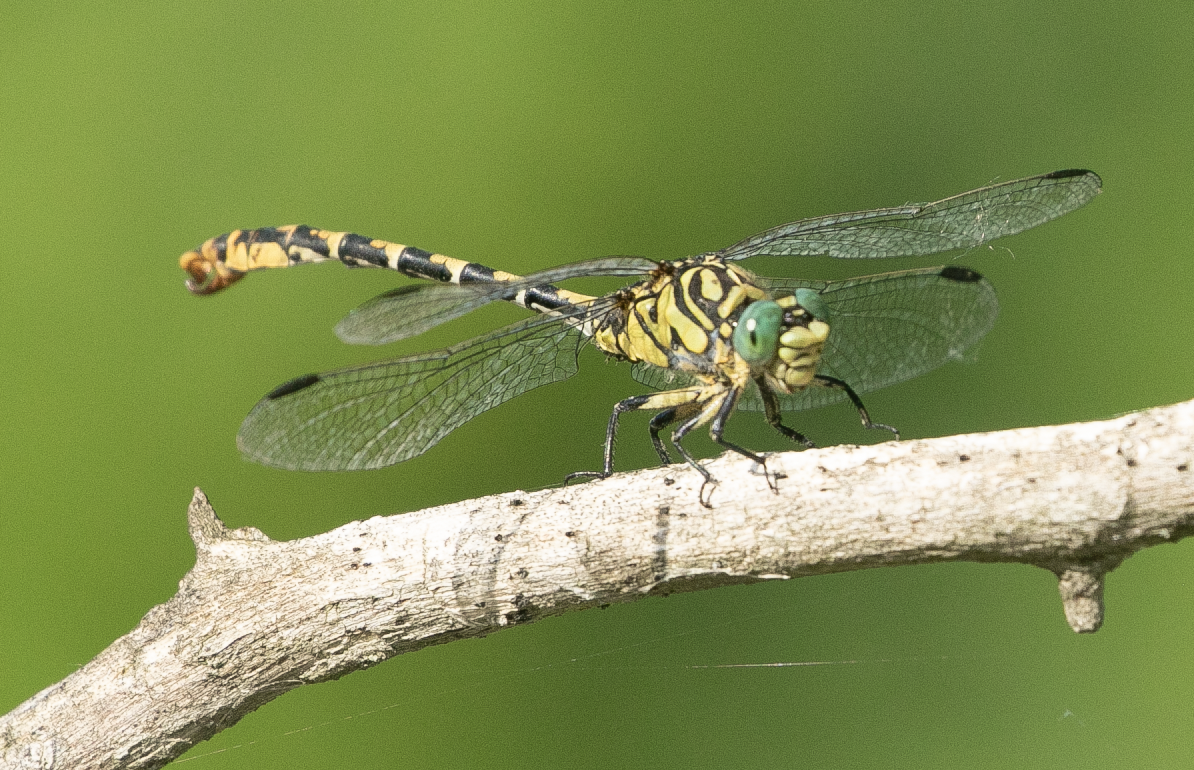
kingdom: Animalia
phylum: Arthropoda
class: Insecta
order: Odonata
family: Gomphidae
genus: Onychogomphus
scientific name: Onychogomphus forcipatus
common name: Small pincertail
